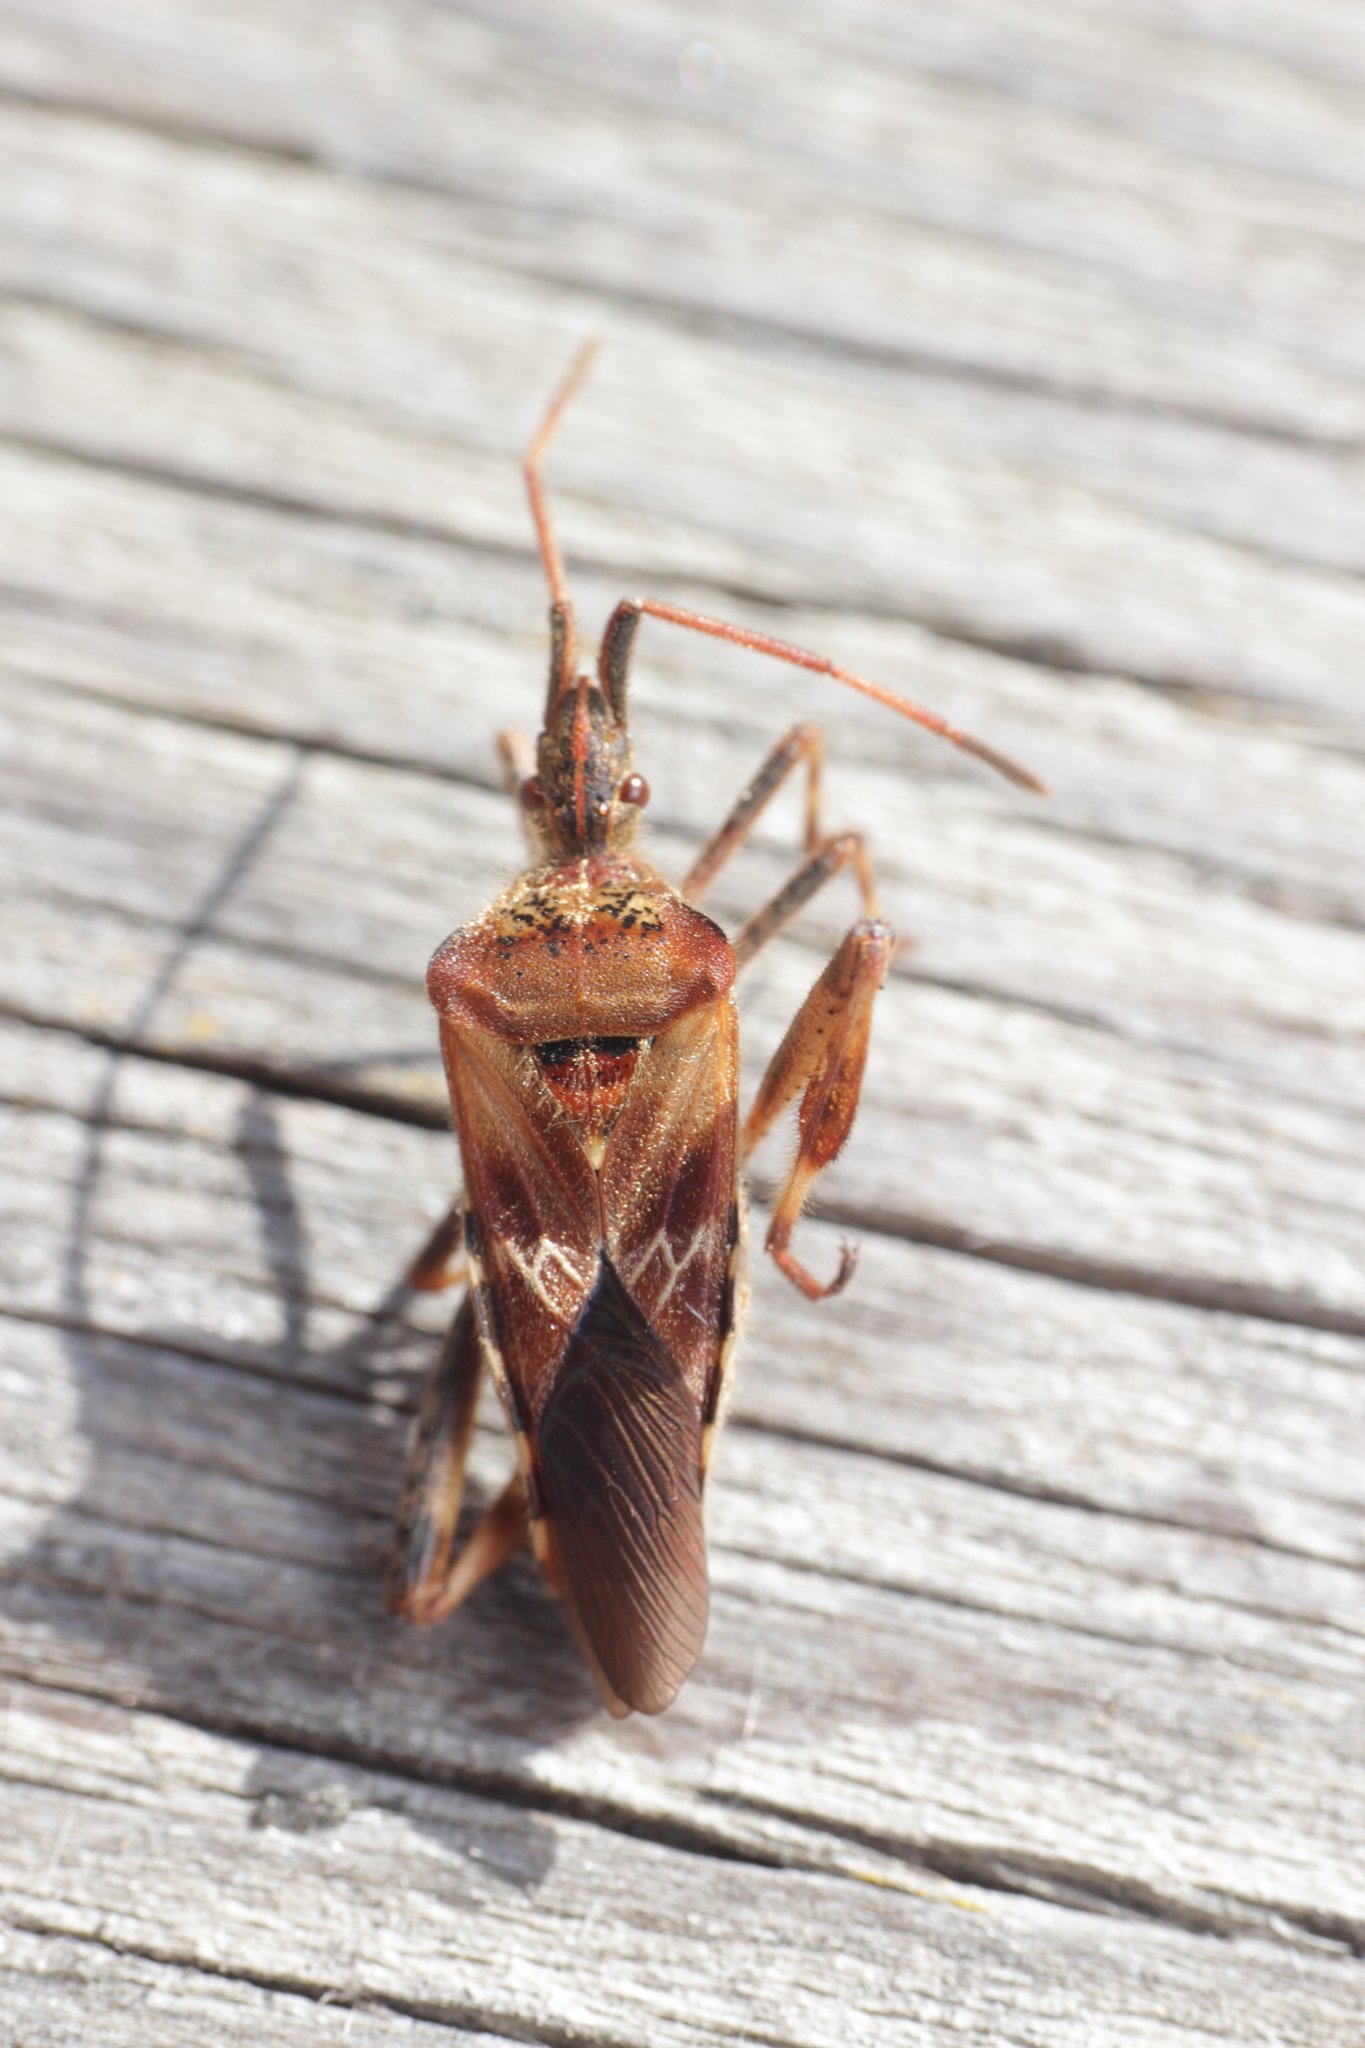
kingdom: Animalia
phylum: Arthropoda
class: Insecta
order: Hemiptera
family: Coreidae
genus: Leptoglossus
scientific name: Leptoglossus occidentalis
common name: Western conifer-seed bug
